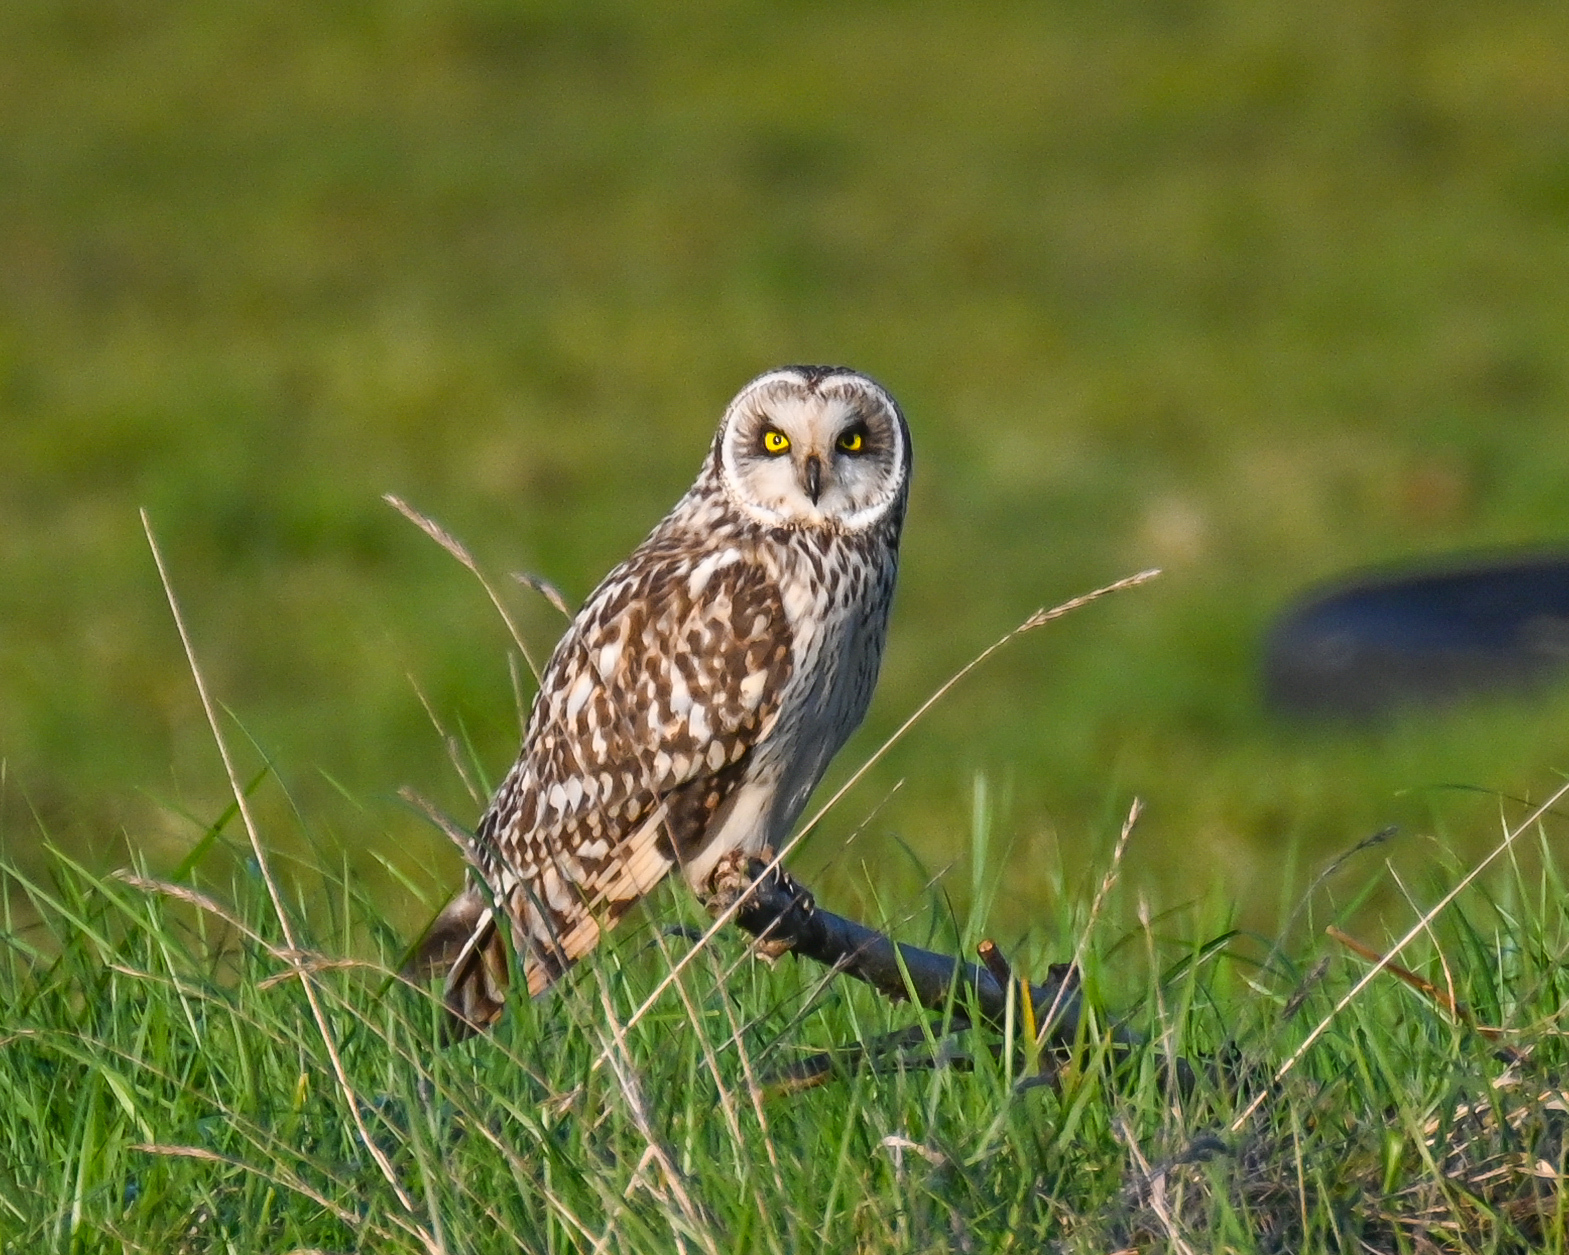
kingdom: Animalia
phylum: Chordata
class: Aves
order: Strigiformes
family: Strigidae
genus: Asio
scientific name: Asio flammeus
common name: Short-eared owl
